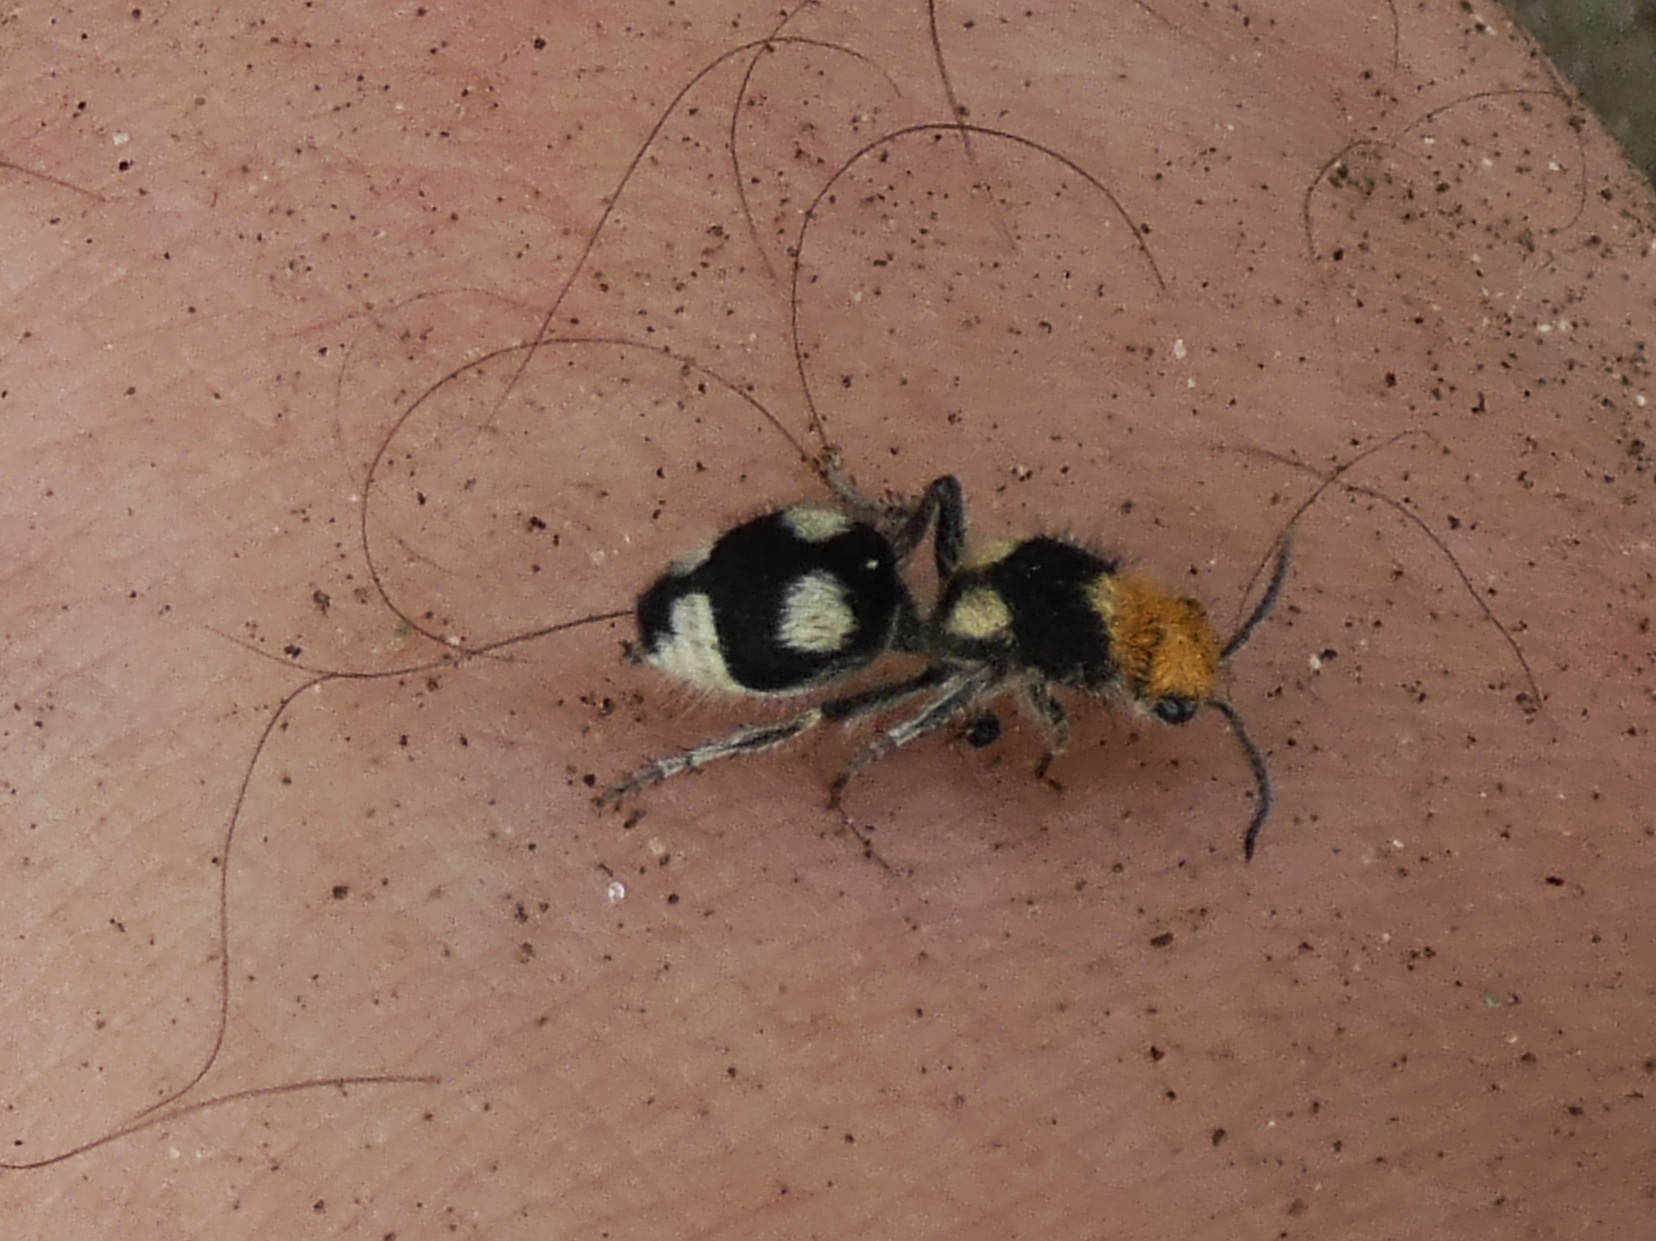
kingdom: Animalia
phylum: Arthropoda
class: Insecta
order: Hymenoptera
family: Mutillidae
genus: Dasymutilla
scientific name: Dasymutilla araneoides
